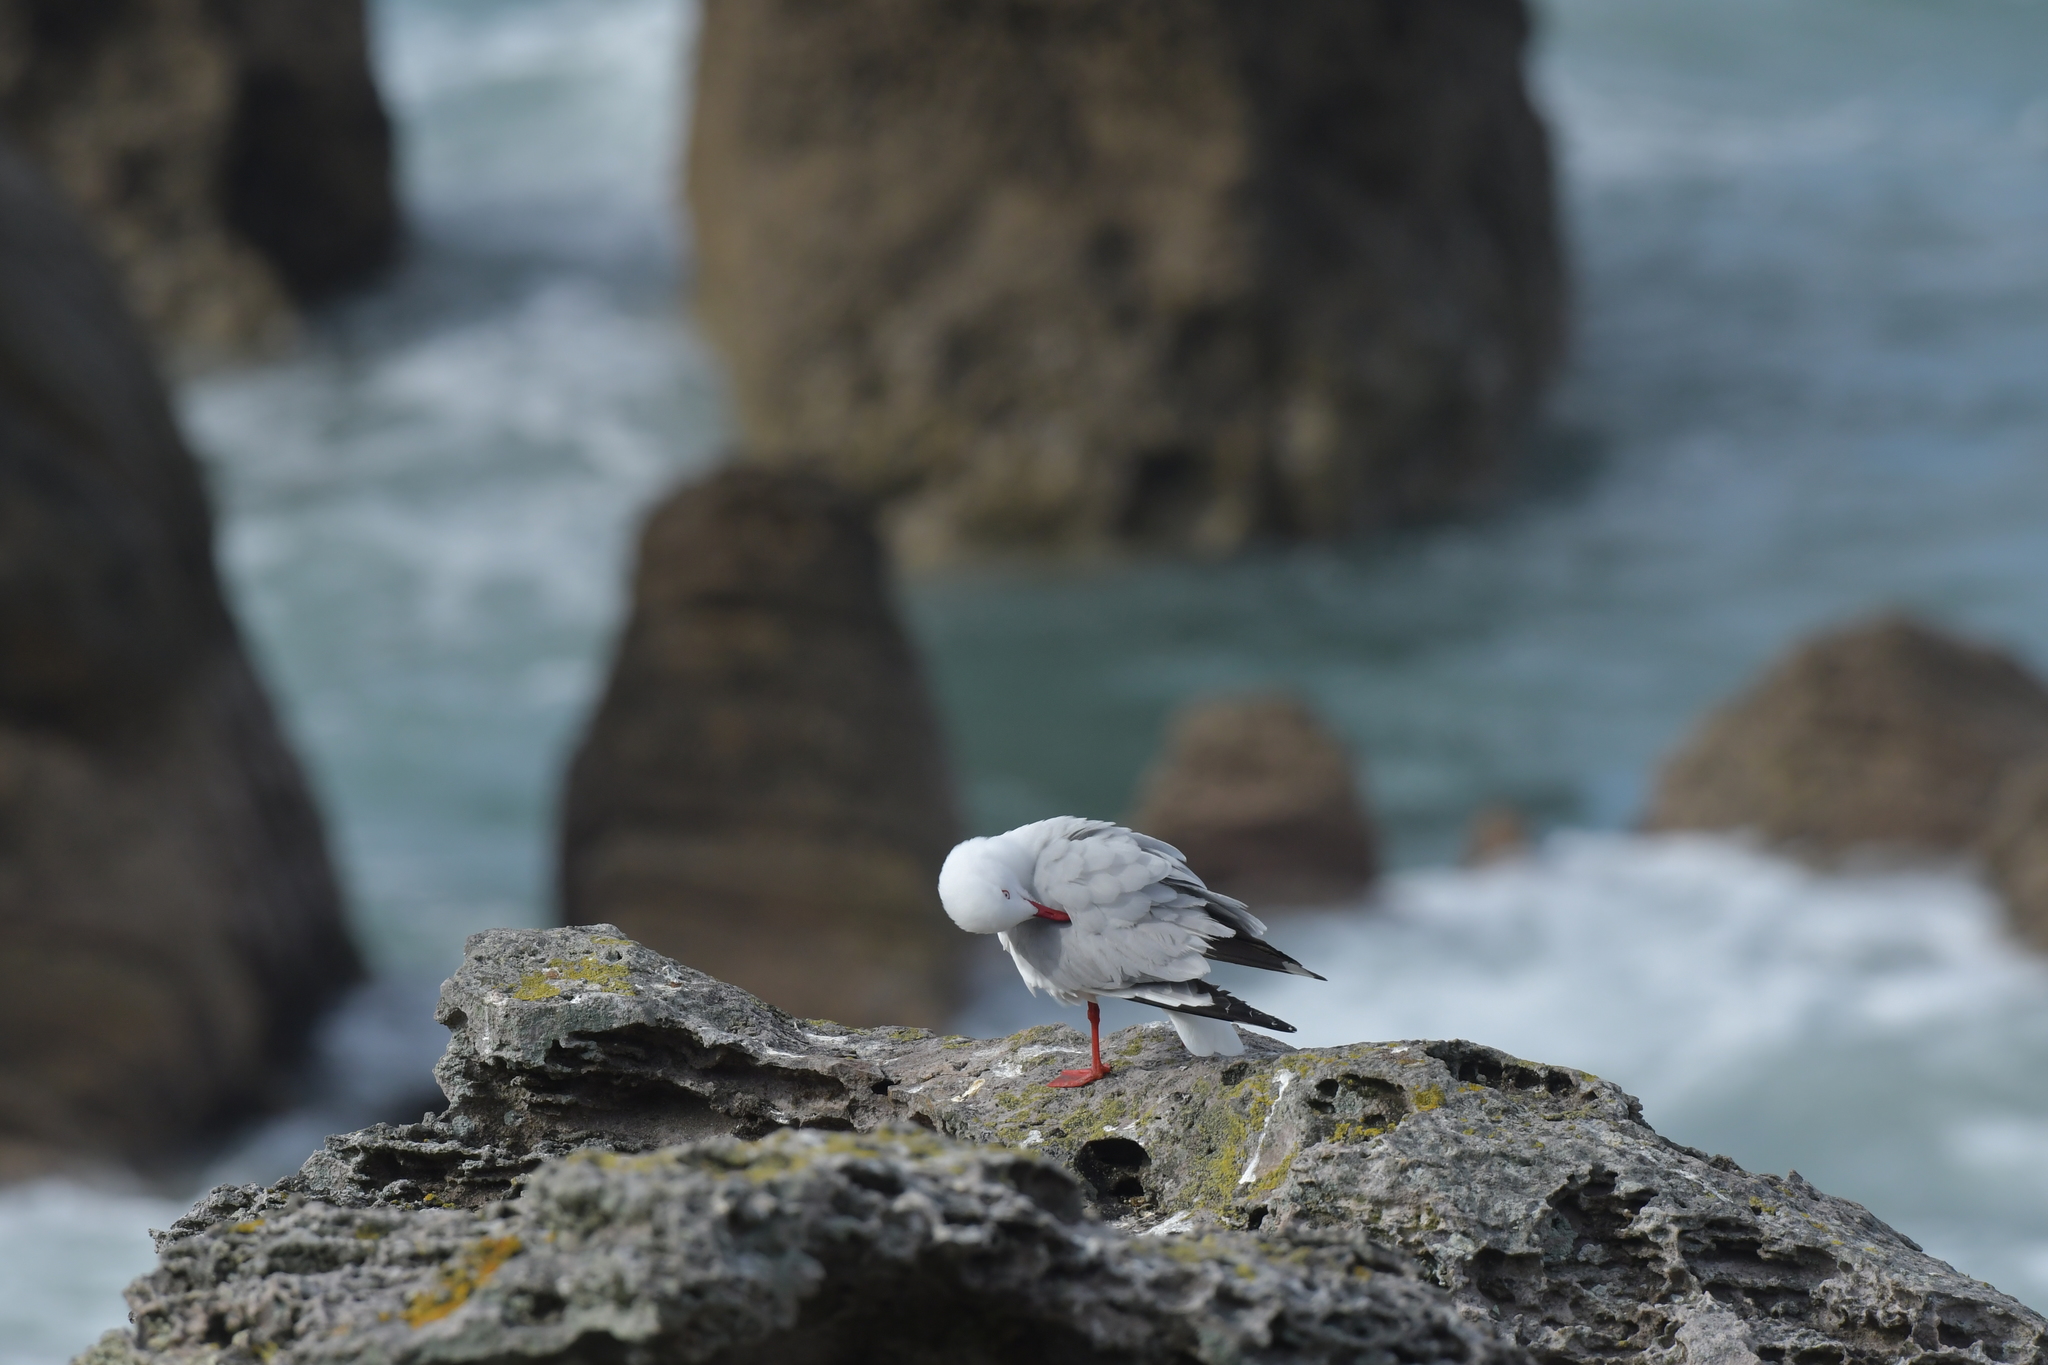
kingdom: Animalia
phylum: Chordata
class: Aves
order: Charadriiformes
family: Laridae
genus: Chroicocephalus
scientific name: Chroicocephalus novaehollandiae
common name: Silver gull
